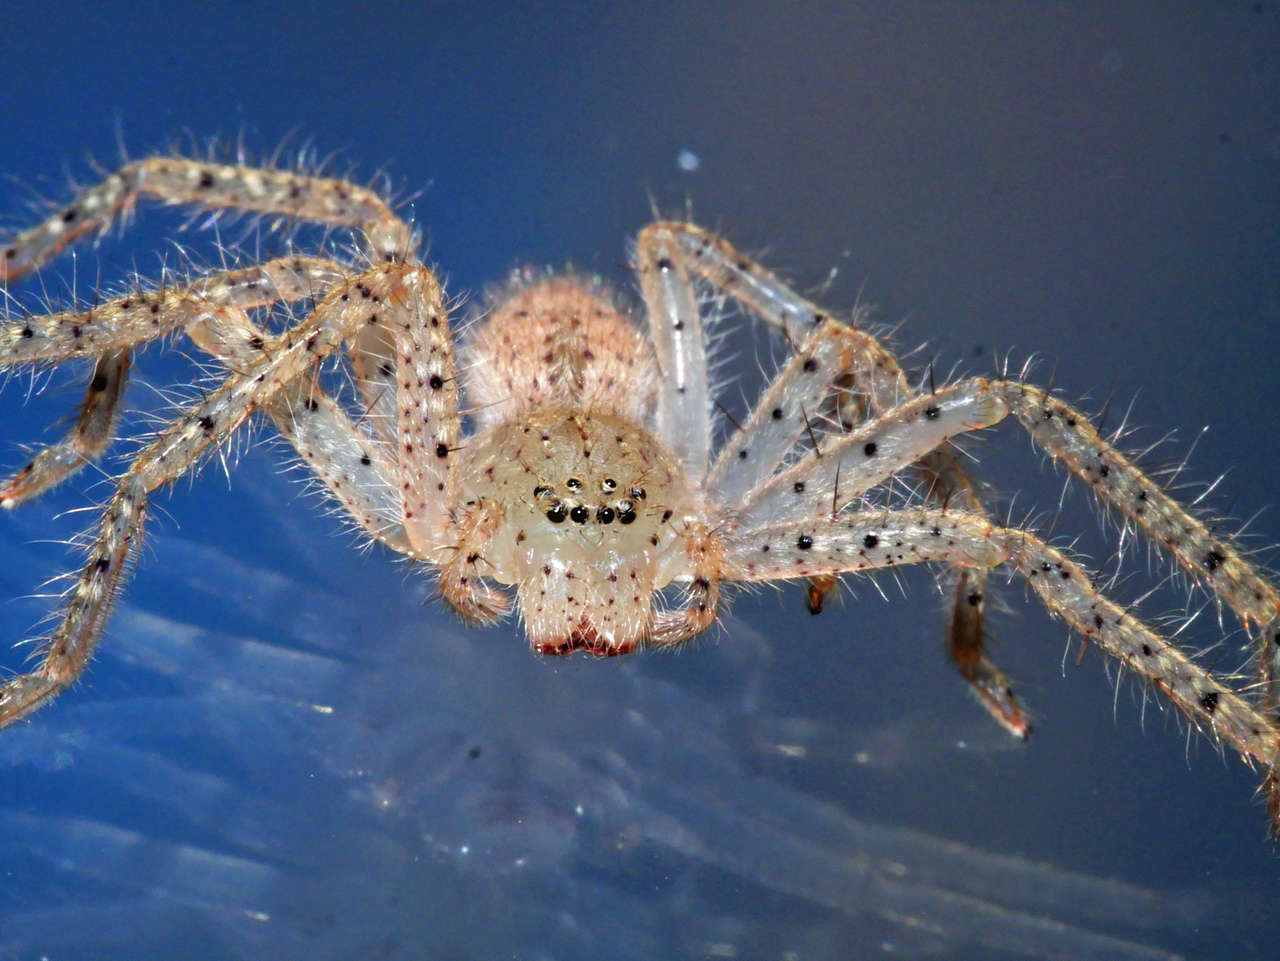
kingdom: Animalia
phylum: Arthropoda
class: Arachnida
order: Araneae
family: Sparassidae
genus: Neosparassus
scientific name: Neosparassus diana
